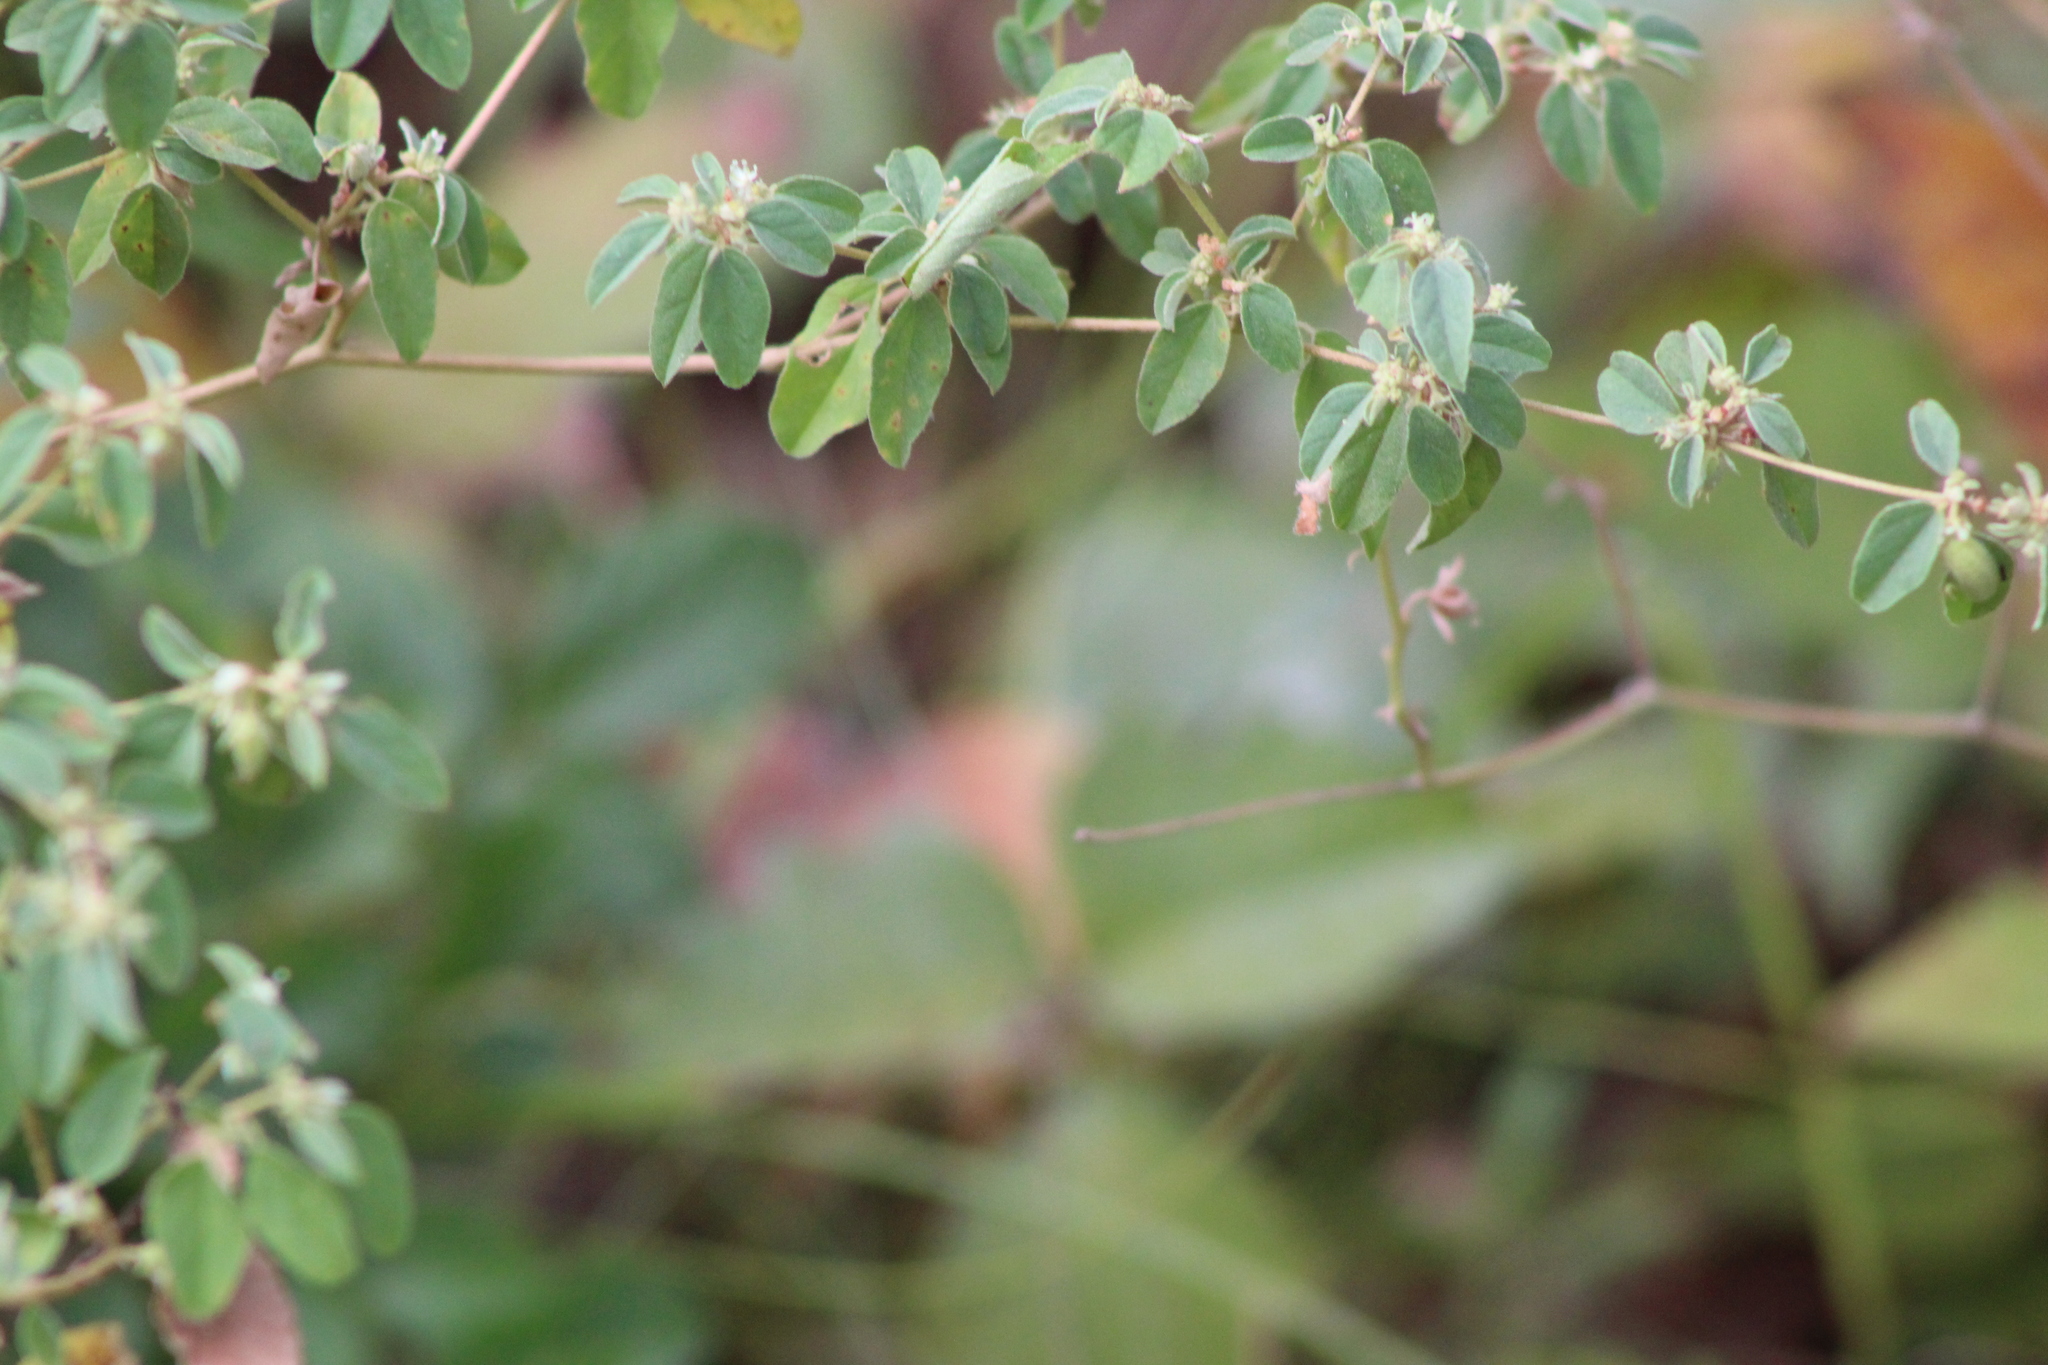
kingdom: Plantae
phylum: Tracheophyta
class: Magnoliopsida
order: Malpighiales
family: Euphorbiaceae
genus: Croton
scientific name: Croton monanthogynus
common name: One-seed croton
